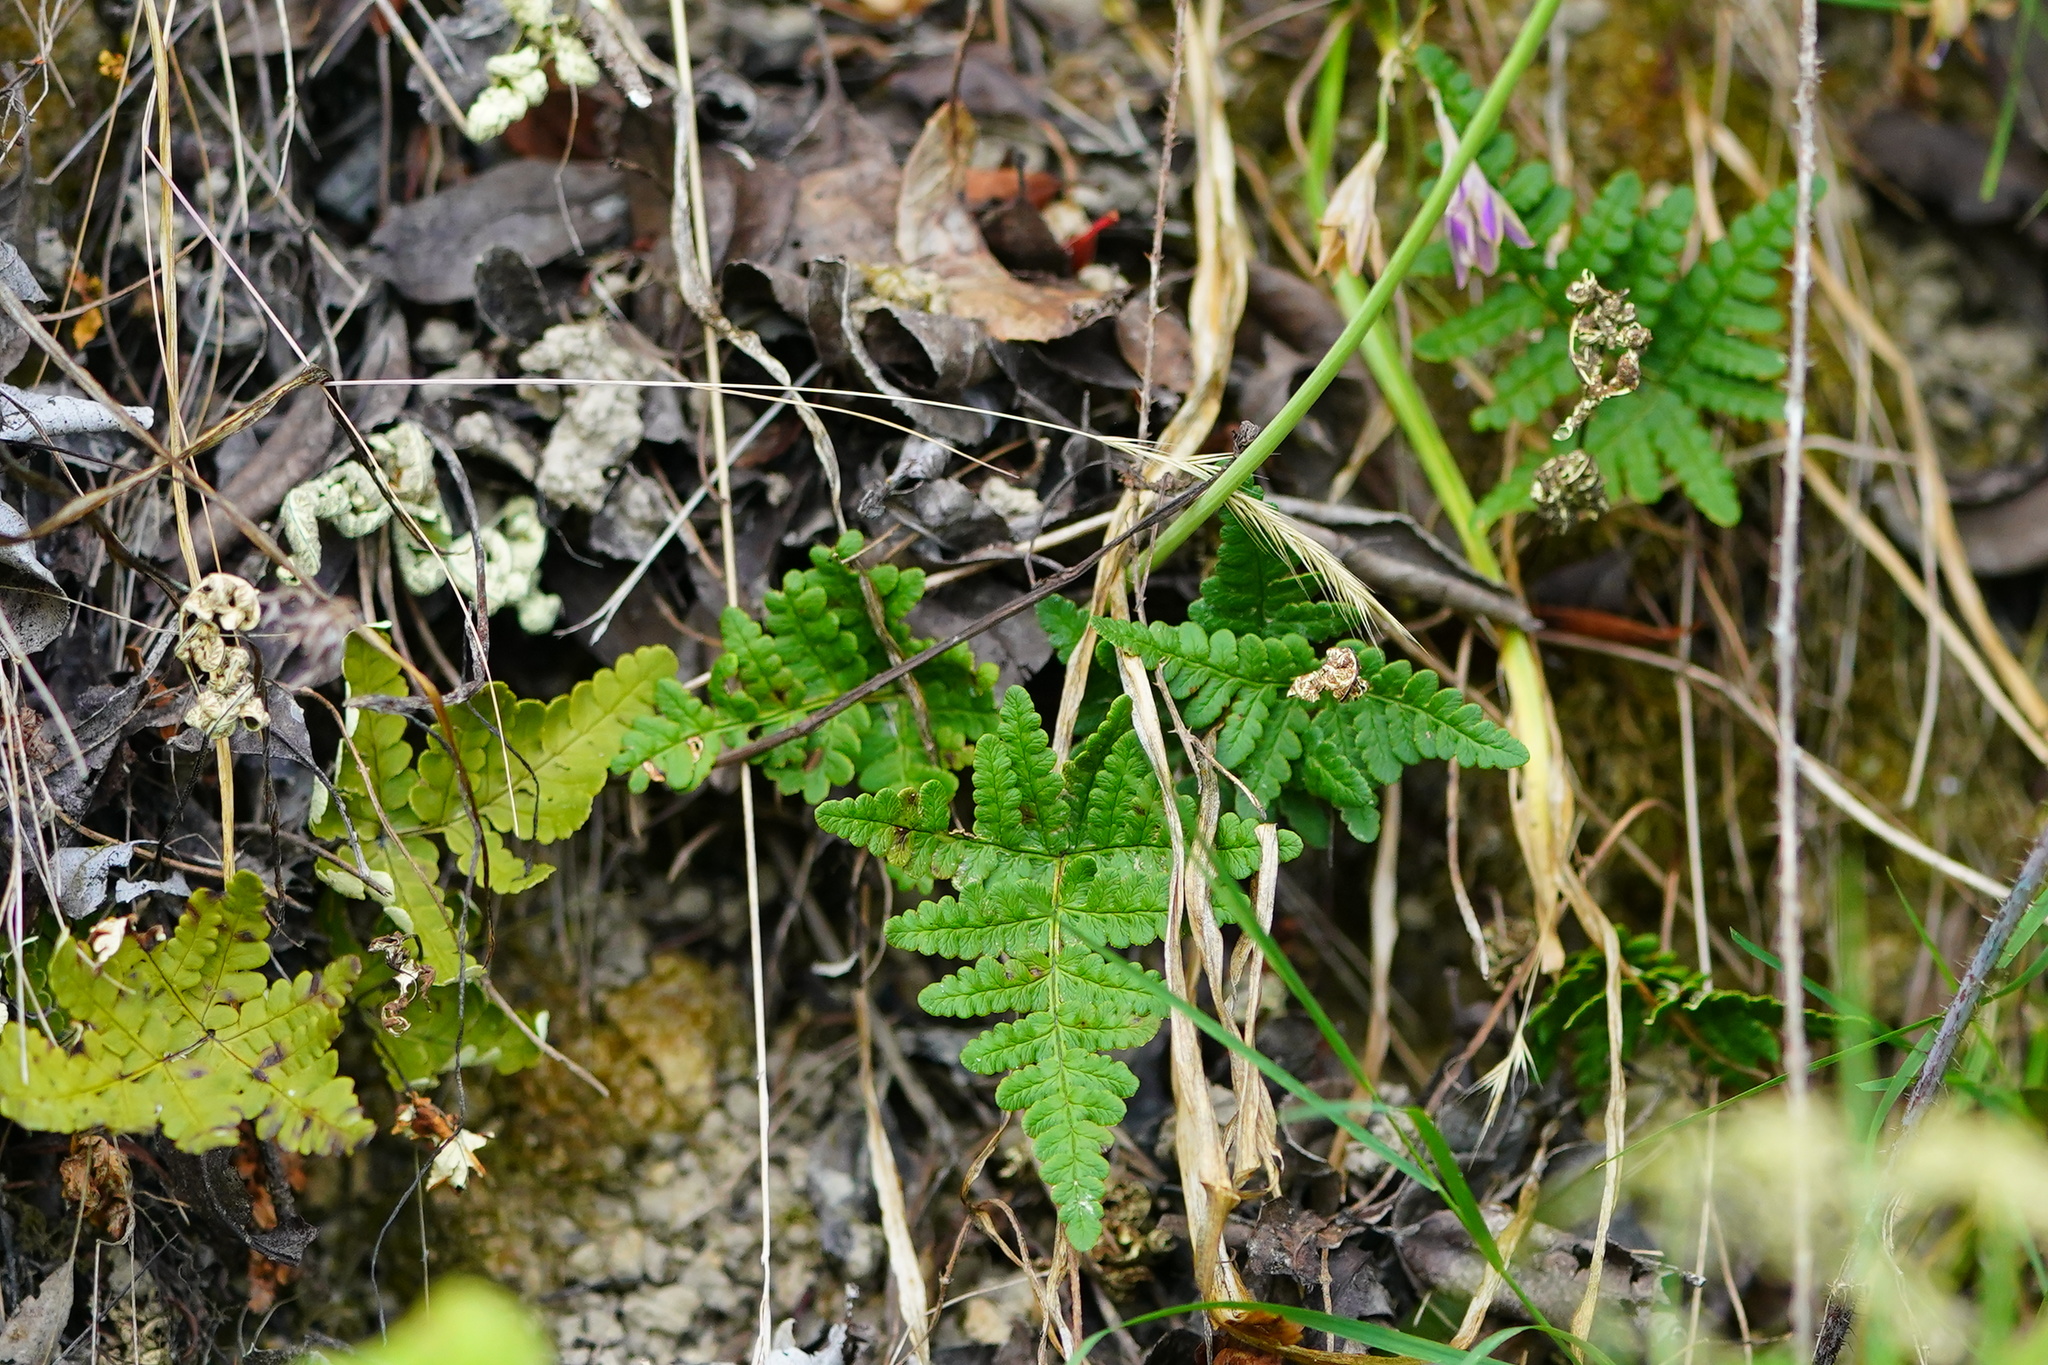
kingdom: Plantae
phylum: Tracheophyta
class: Polypodiopsida
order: Polypodiales
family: Pteridaceae
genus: Pentagramma
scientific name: Pentagramma triangularis
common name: Gold fern
